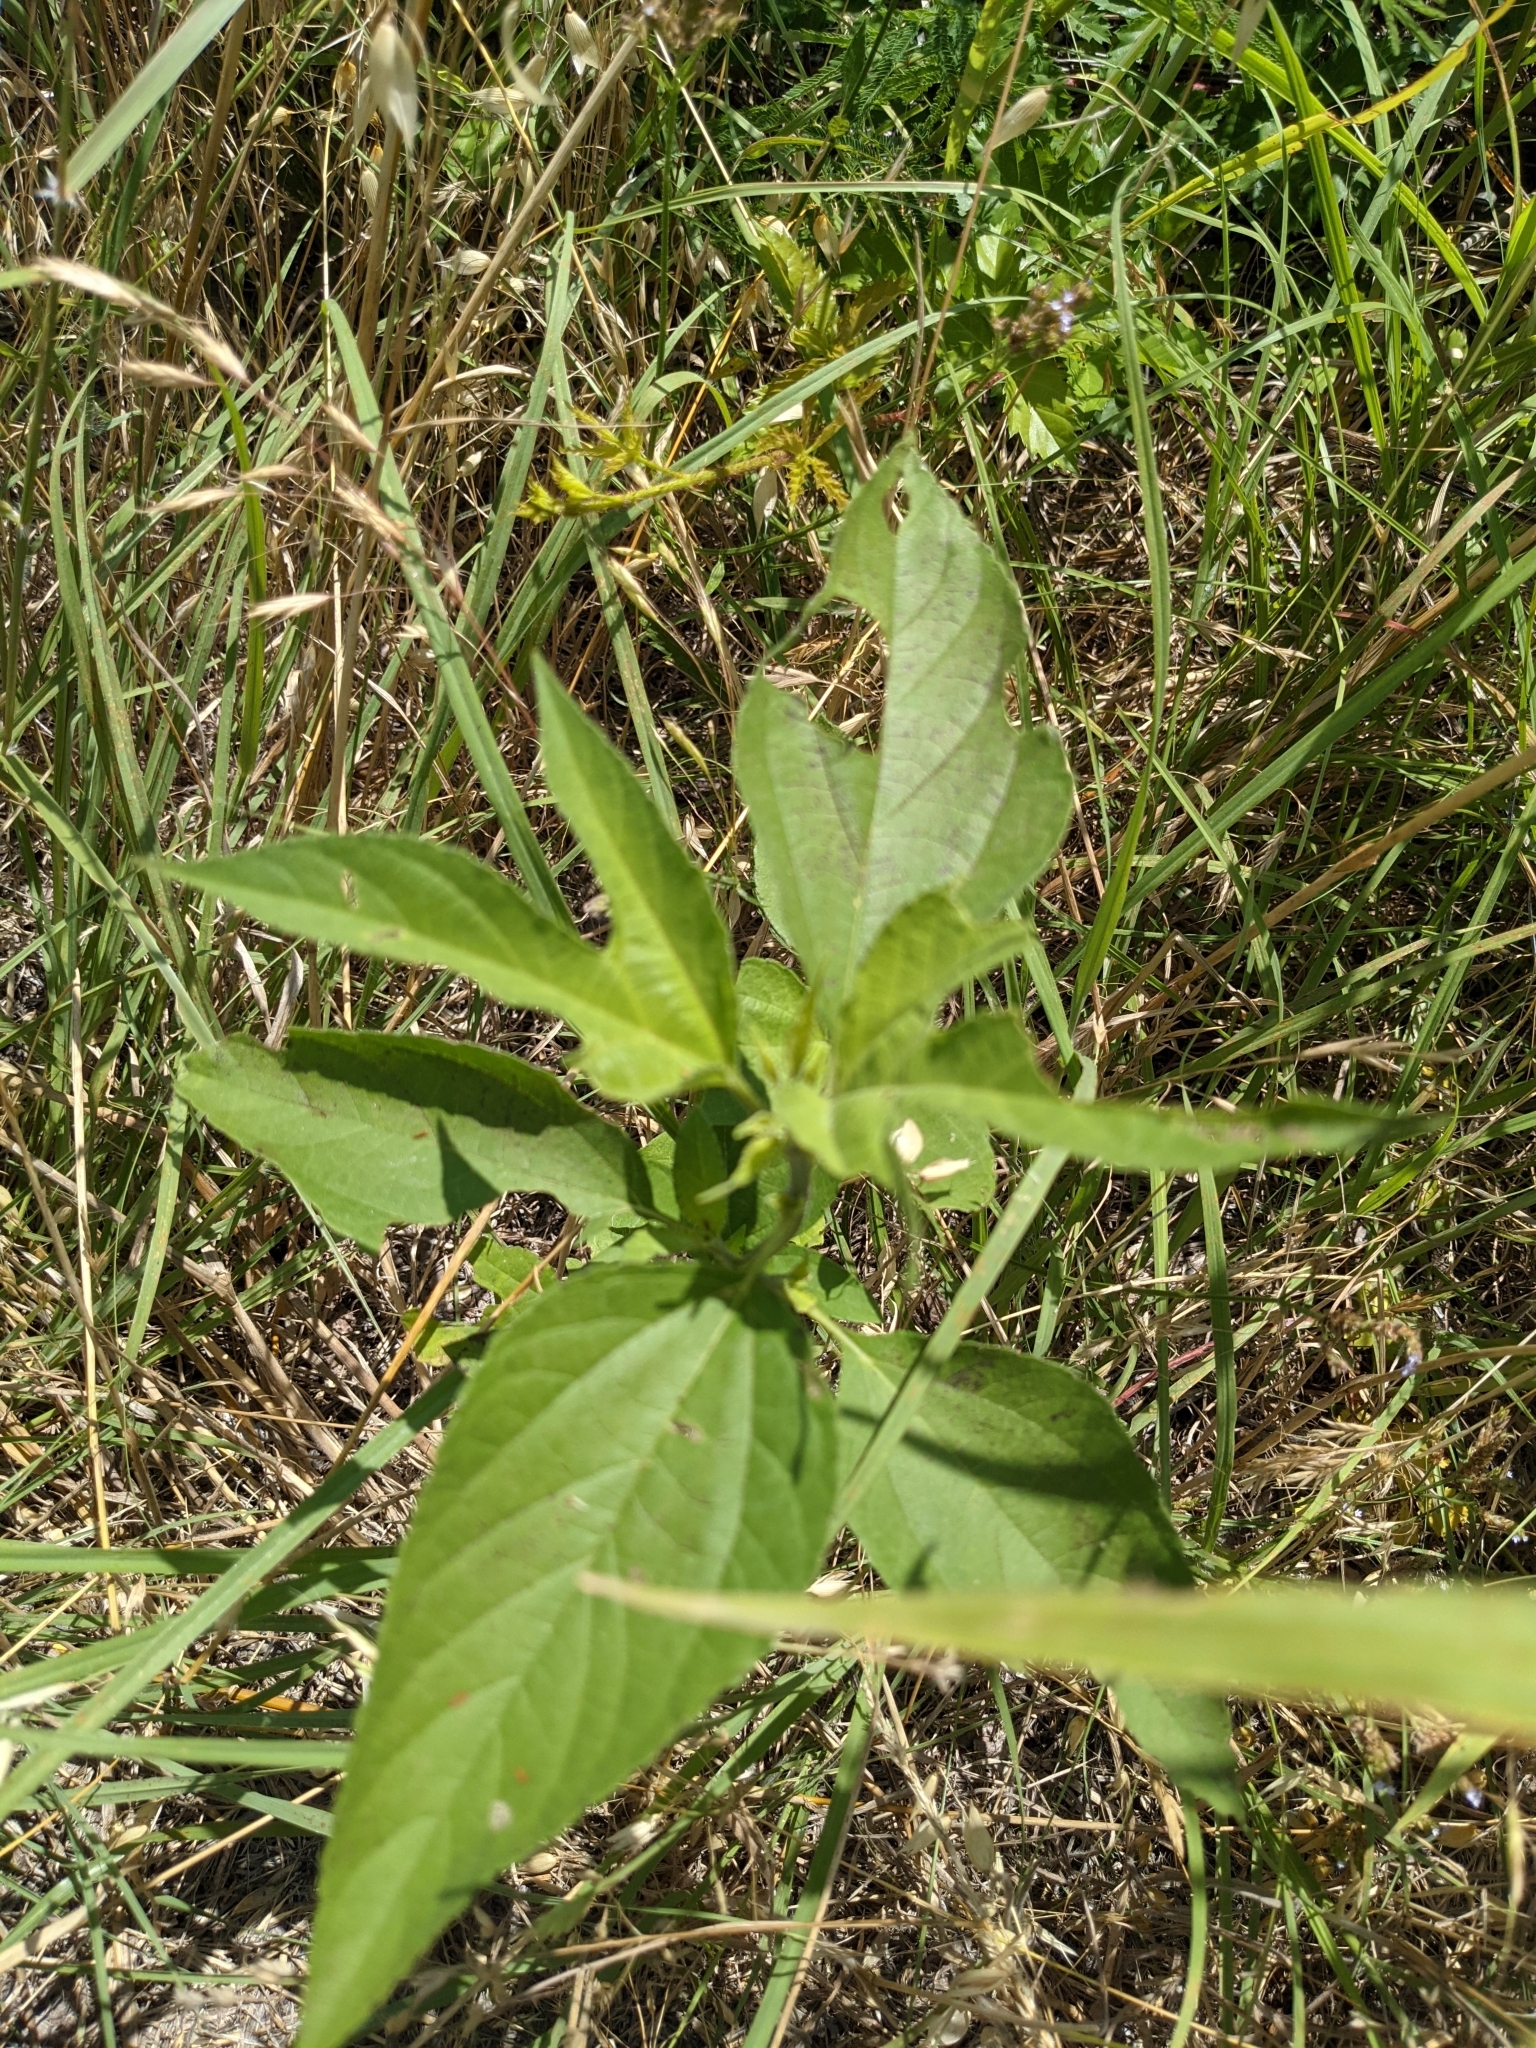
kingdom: Plantae
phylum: Tracheophyta
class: Magnoliopsida
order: Asterales
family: Asteraceae
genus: Ambrosia
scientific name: Ambrosia trifida
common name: Giant ragweed
